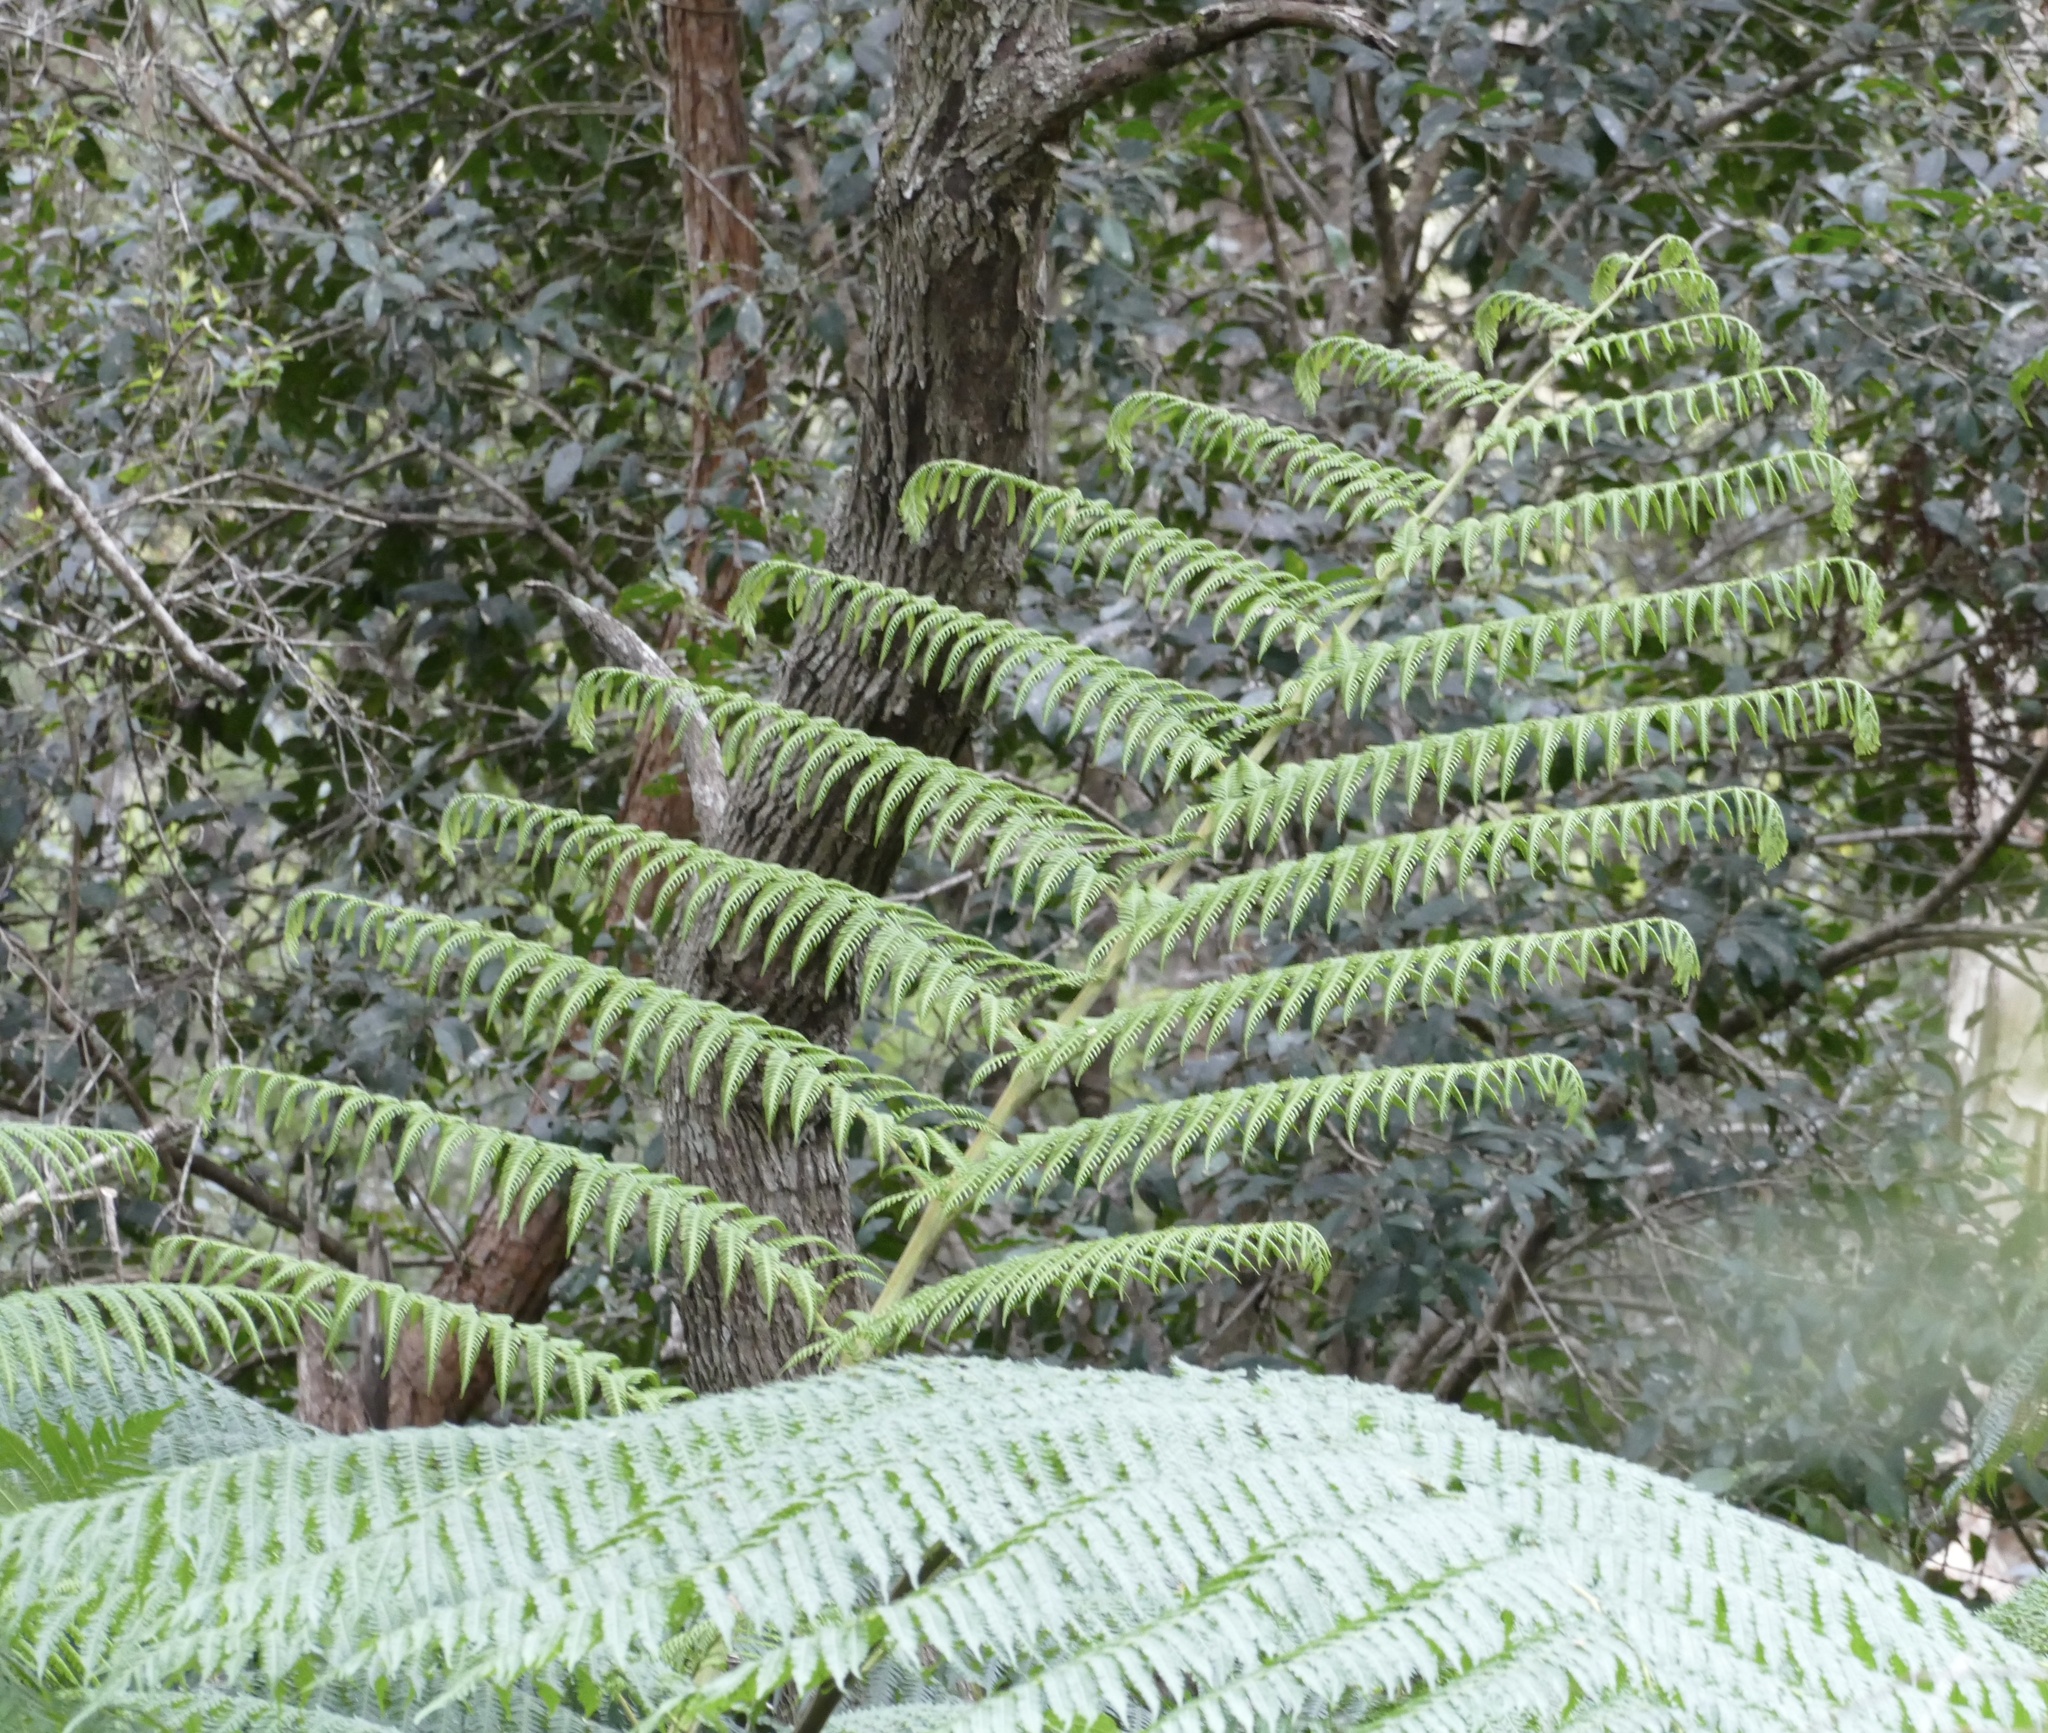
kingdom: Plantae
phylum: Tracheophyta
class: Polypodiopsida
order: Cyatheales
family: Cyatheaceae
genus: Sphaeropteris
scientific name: Sphaeropteris cooperi
